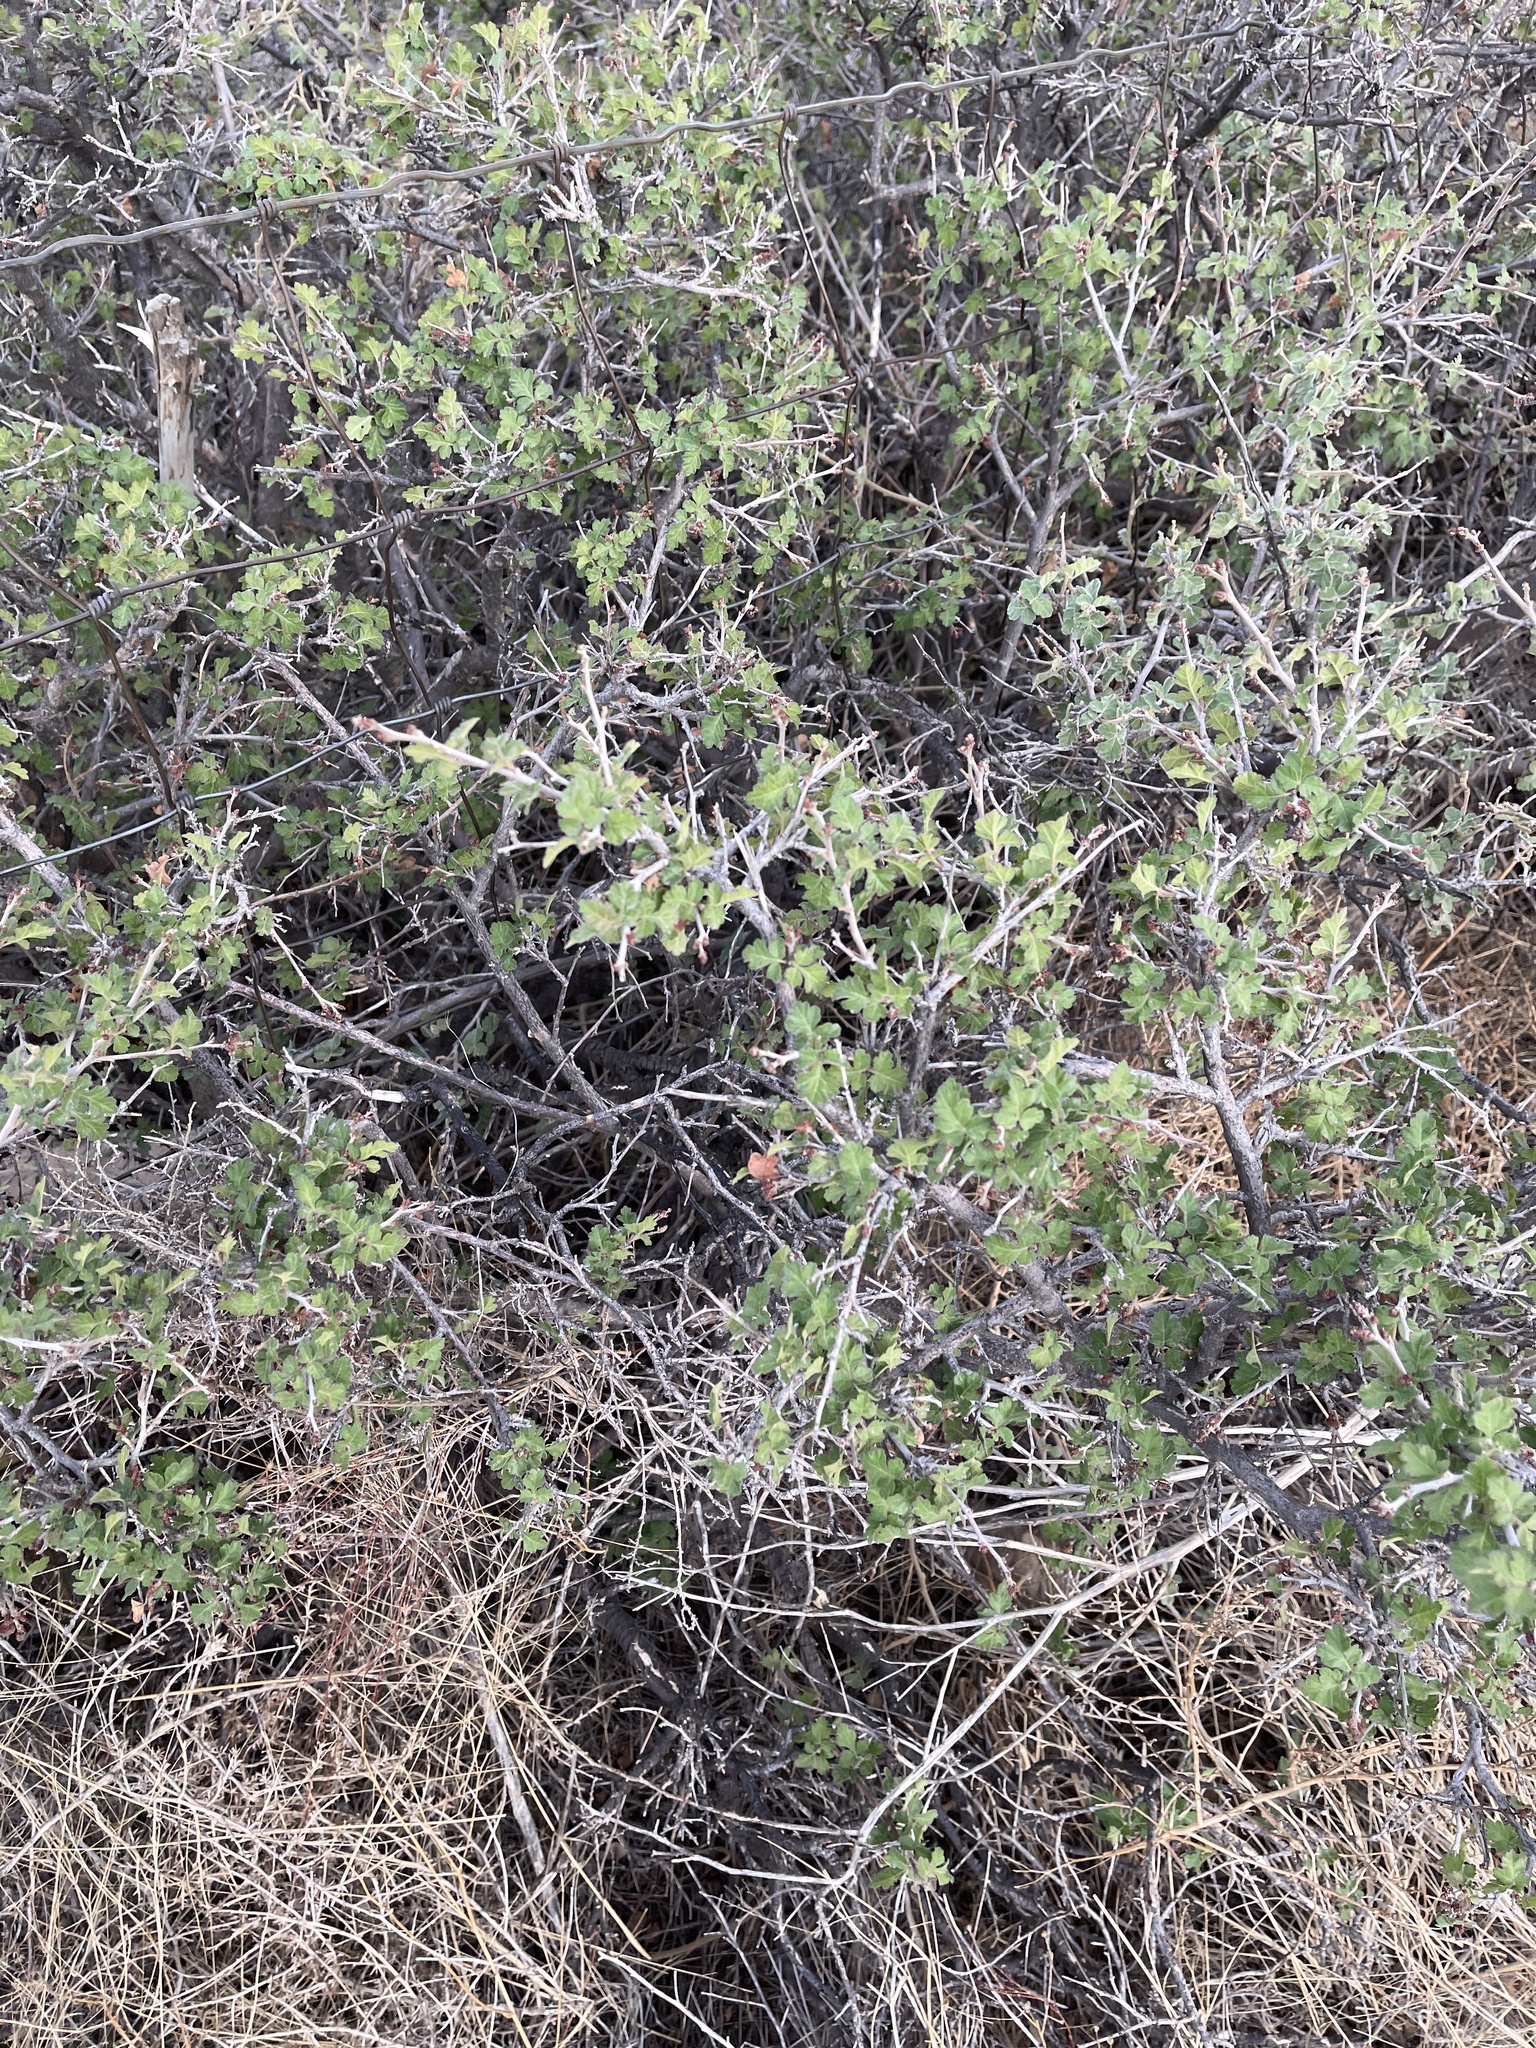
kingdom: Plantae
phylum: Tracheophyta
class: Magnoliopsida
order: Sapindales
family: Anacardiaceae
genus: Rhus
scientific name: Rhus microphylla
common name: Desert sumac
